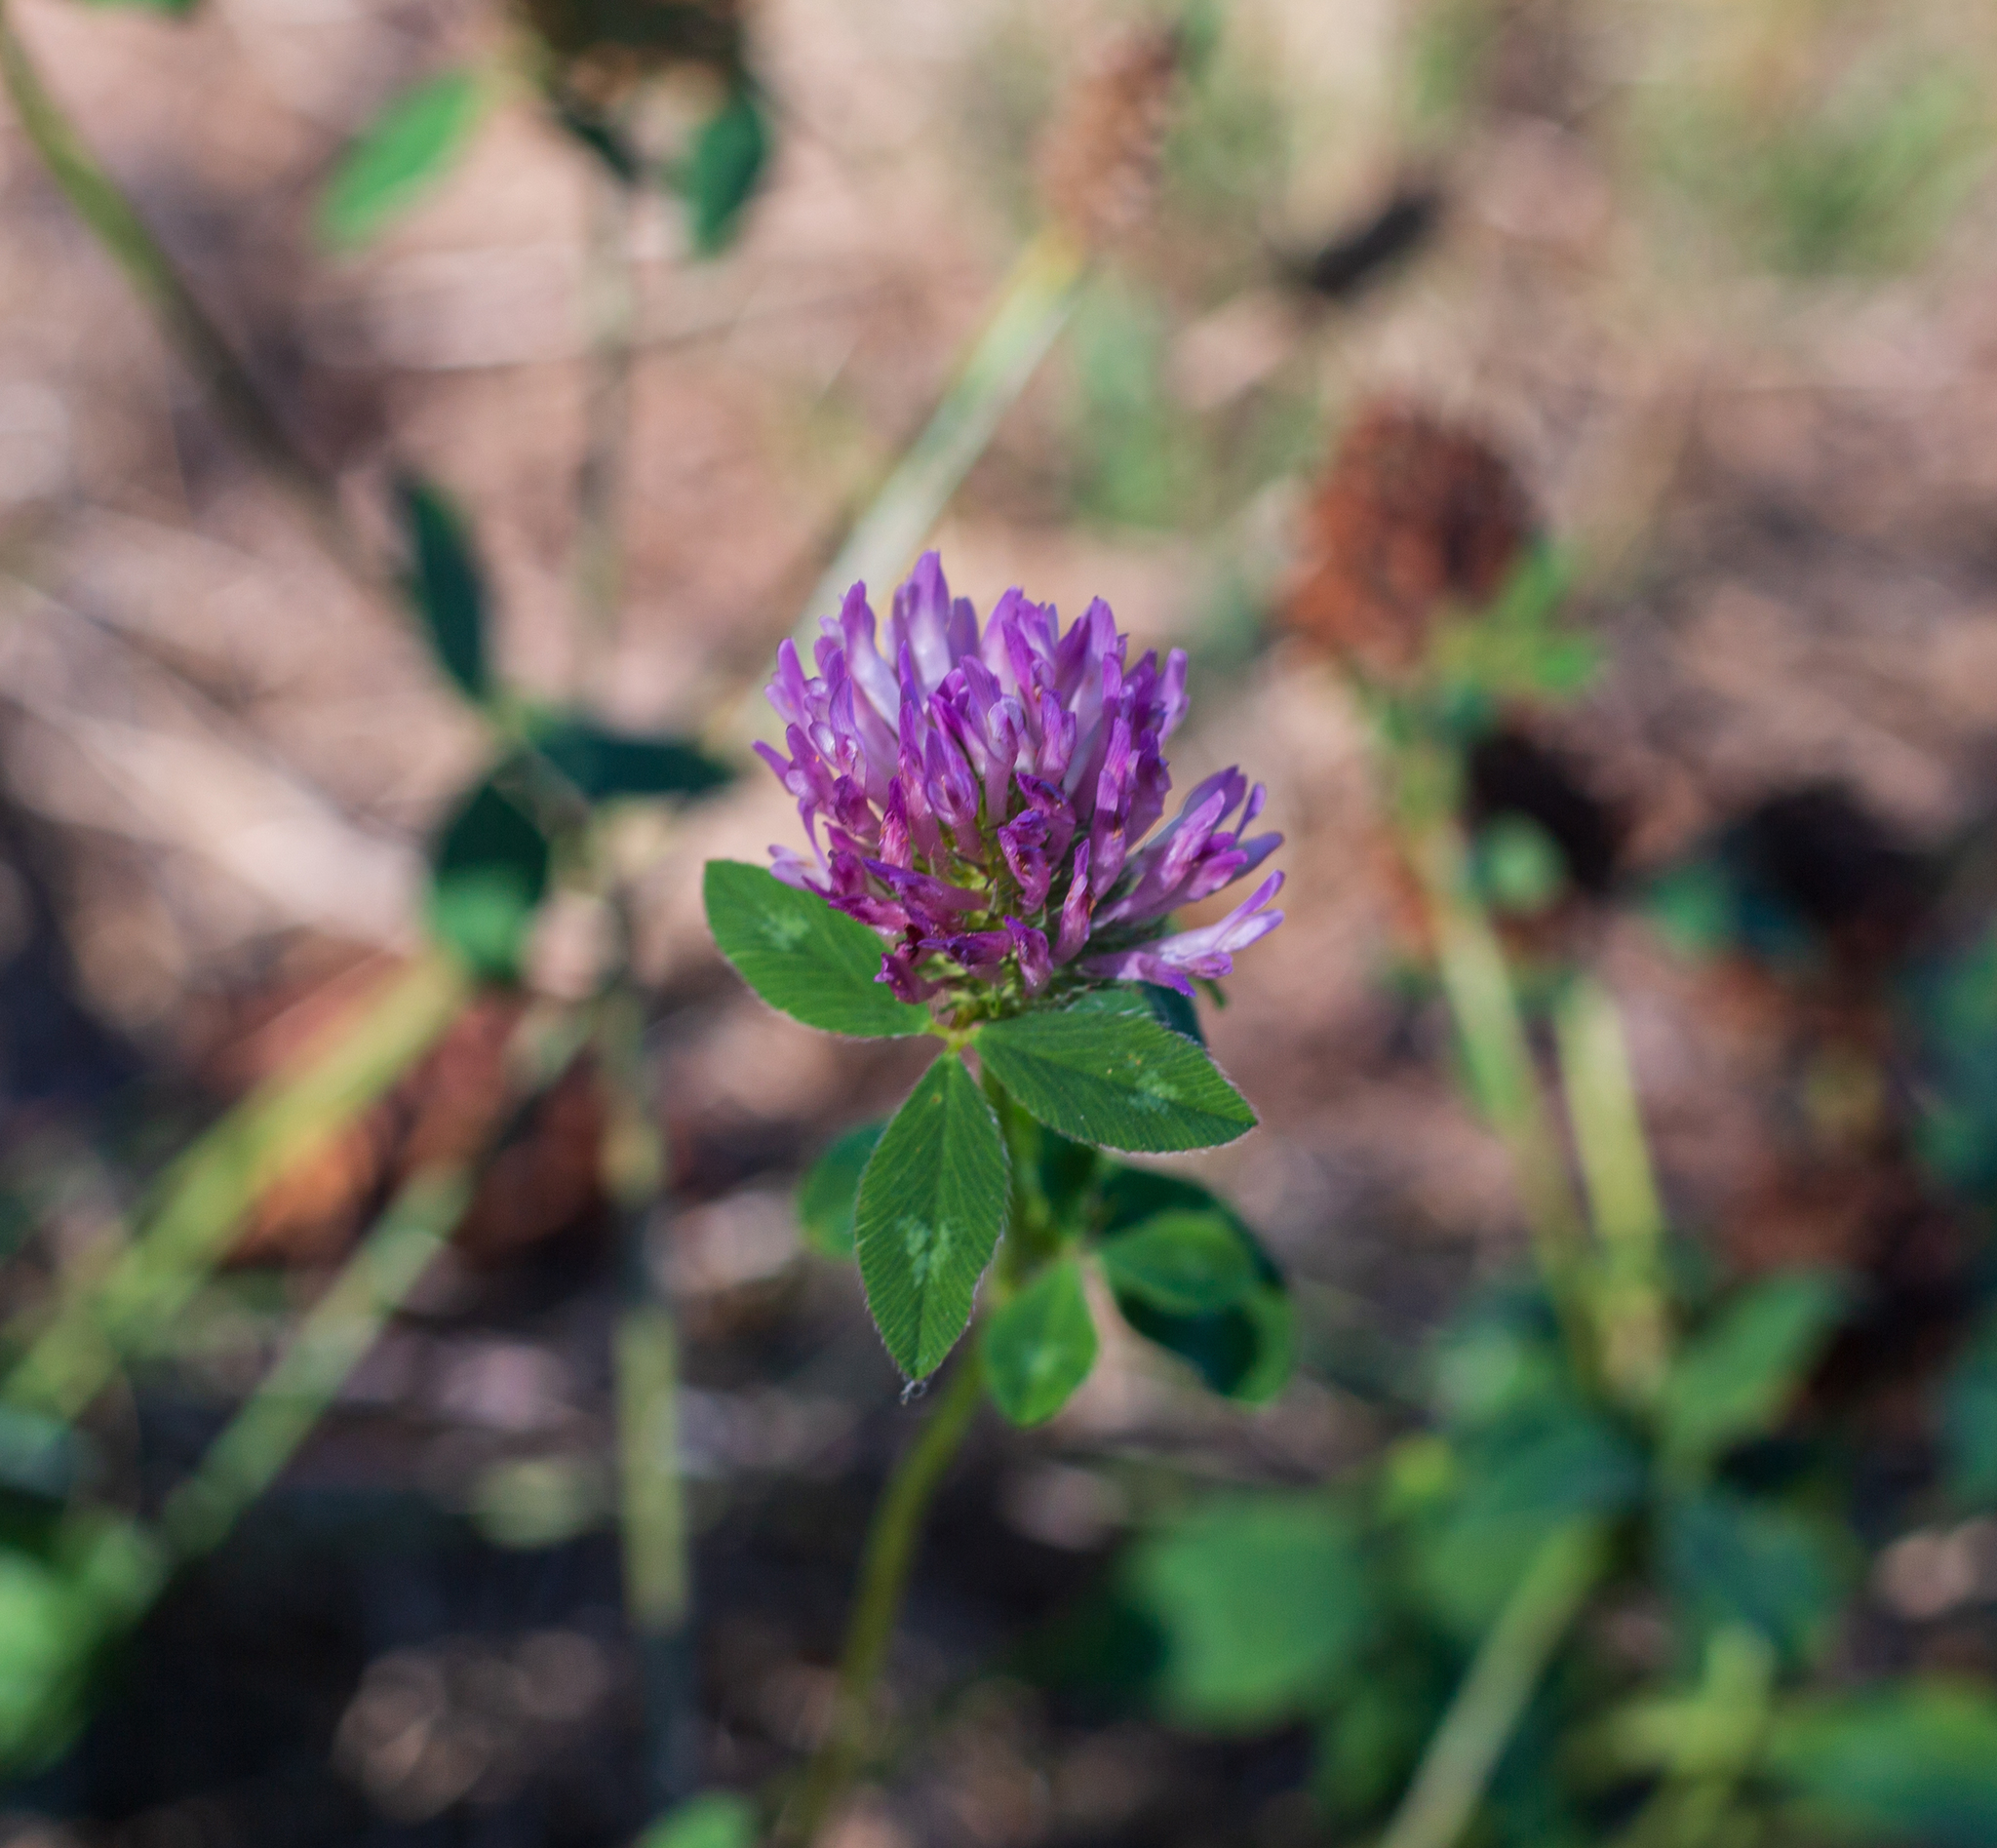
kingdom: Plantae
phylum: Tracheophyta
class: Magnoliopsida
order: Fabales
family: Fabaceae
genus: Trifolium
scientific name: Trifolium pratense
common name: Red clover
